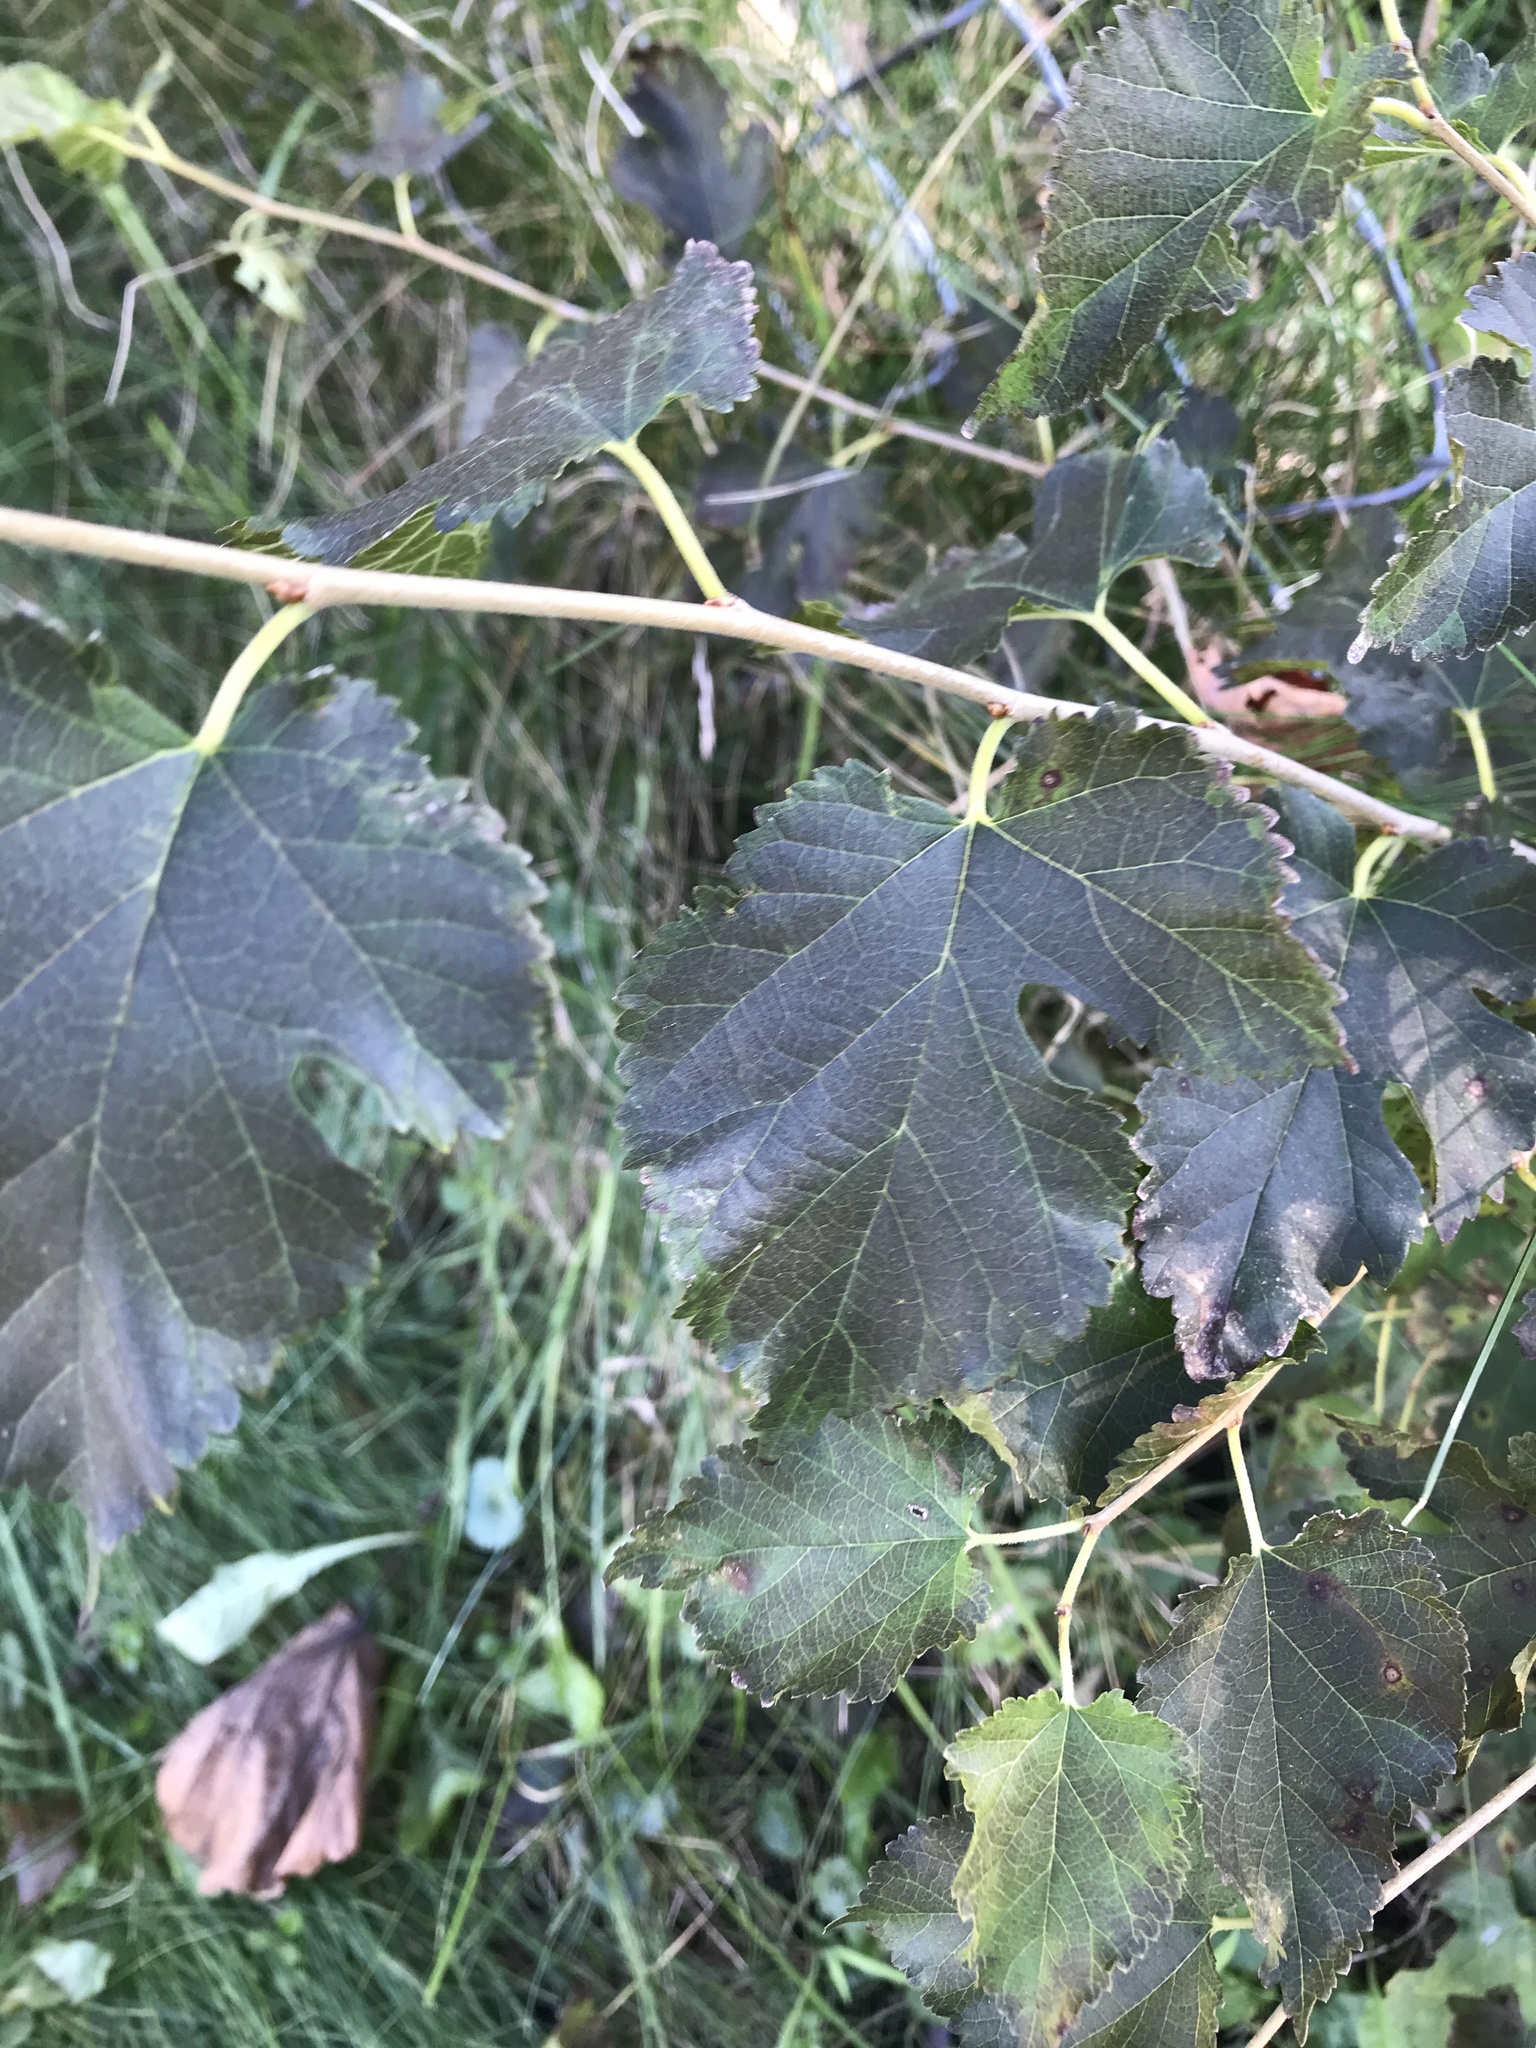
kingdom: Plantae
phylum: Tracheophyta
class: Magnoliopsida
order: Rosales
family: Moraceae
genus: Morus
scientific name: Morus alba
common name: White mulberry
